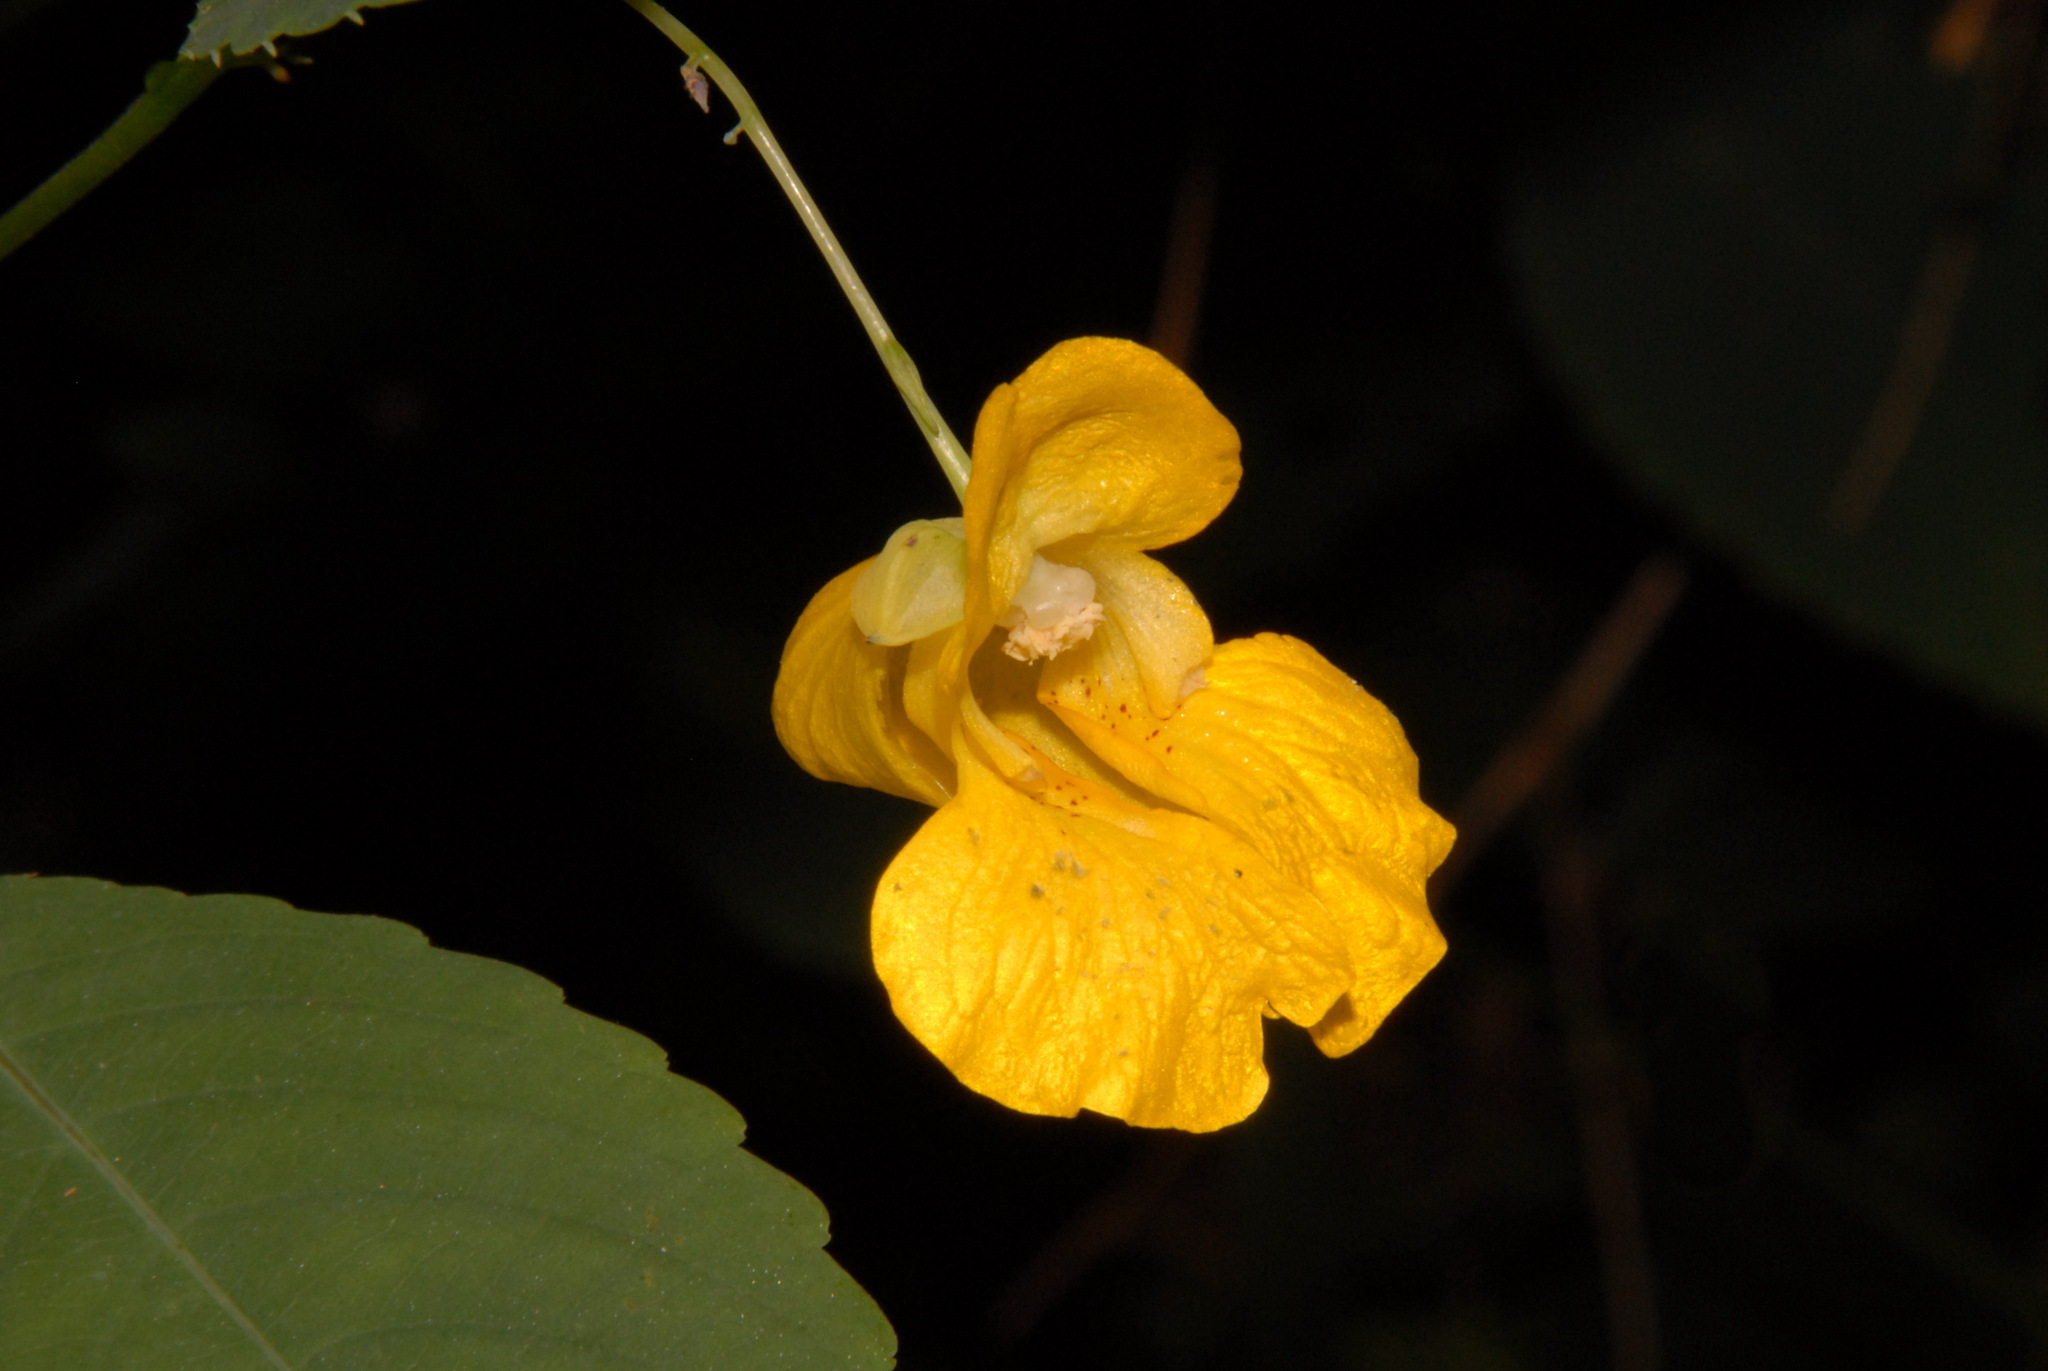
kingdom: Plantae
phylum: Tracheophyta
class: Magnoliopsida
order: Ericales
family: Balsaminaceae
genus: Impatiens
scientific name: Impatiens pallida
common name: Pale snapweed
